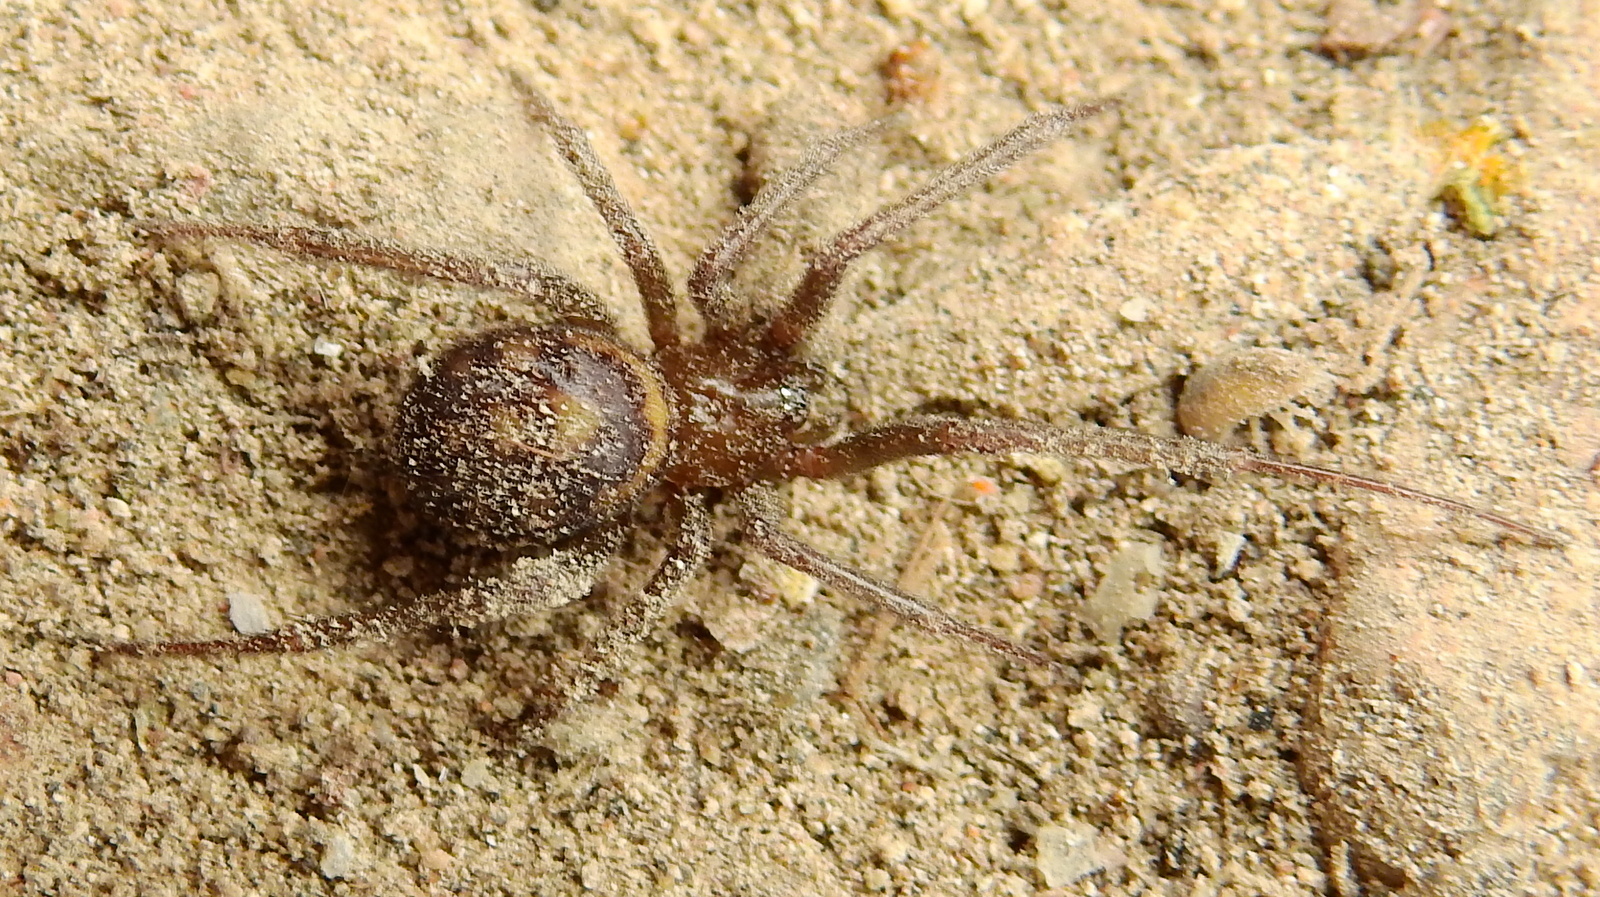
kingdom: Animalia
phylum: Arthropoda
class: Arachnida
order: Araneae
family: Theridiidae
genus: Steatoda
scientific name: Steatoda grossa
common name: False black widow
